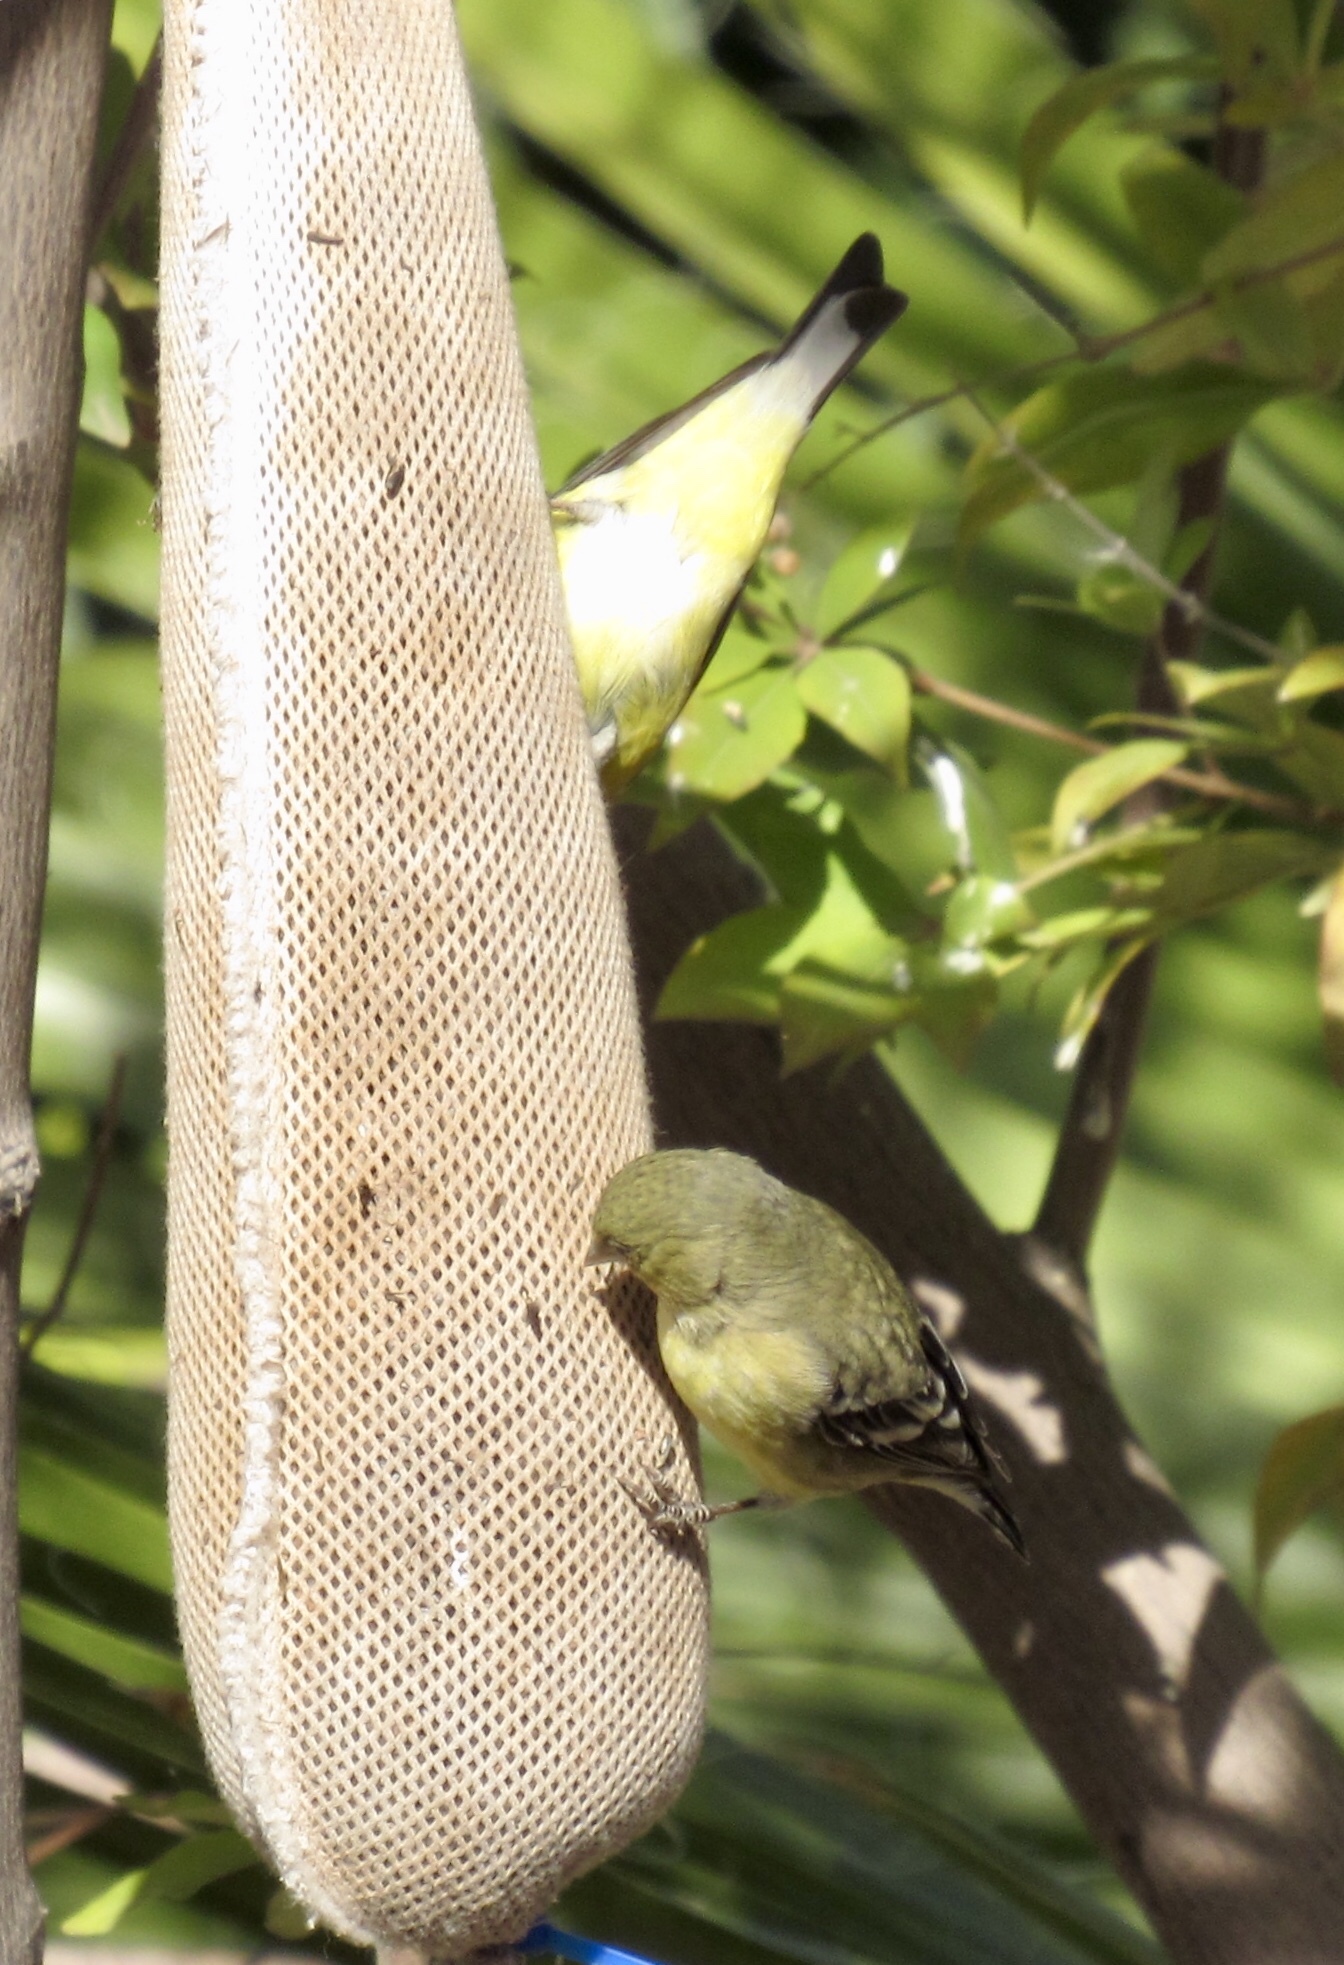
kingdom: Animalia
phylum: Chordata
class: Aves
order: Passeriformes
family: Fringillidae
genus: Spinus
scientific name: Spinus psaltria
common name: Lesser goldfinch
